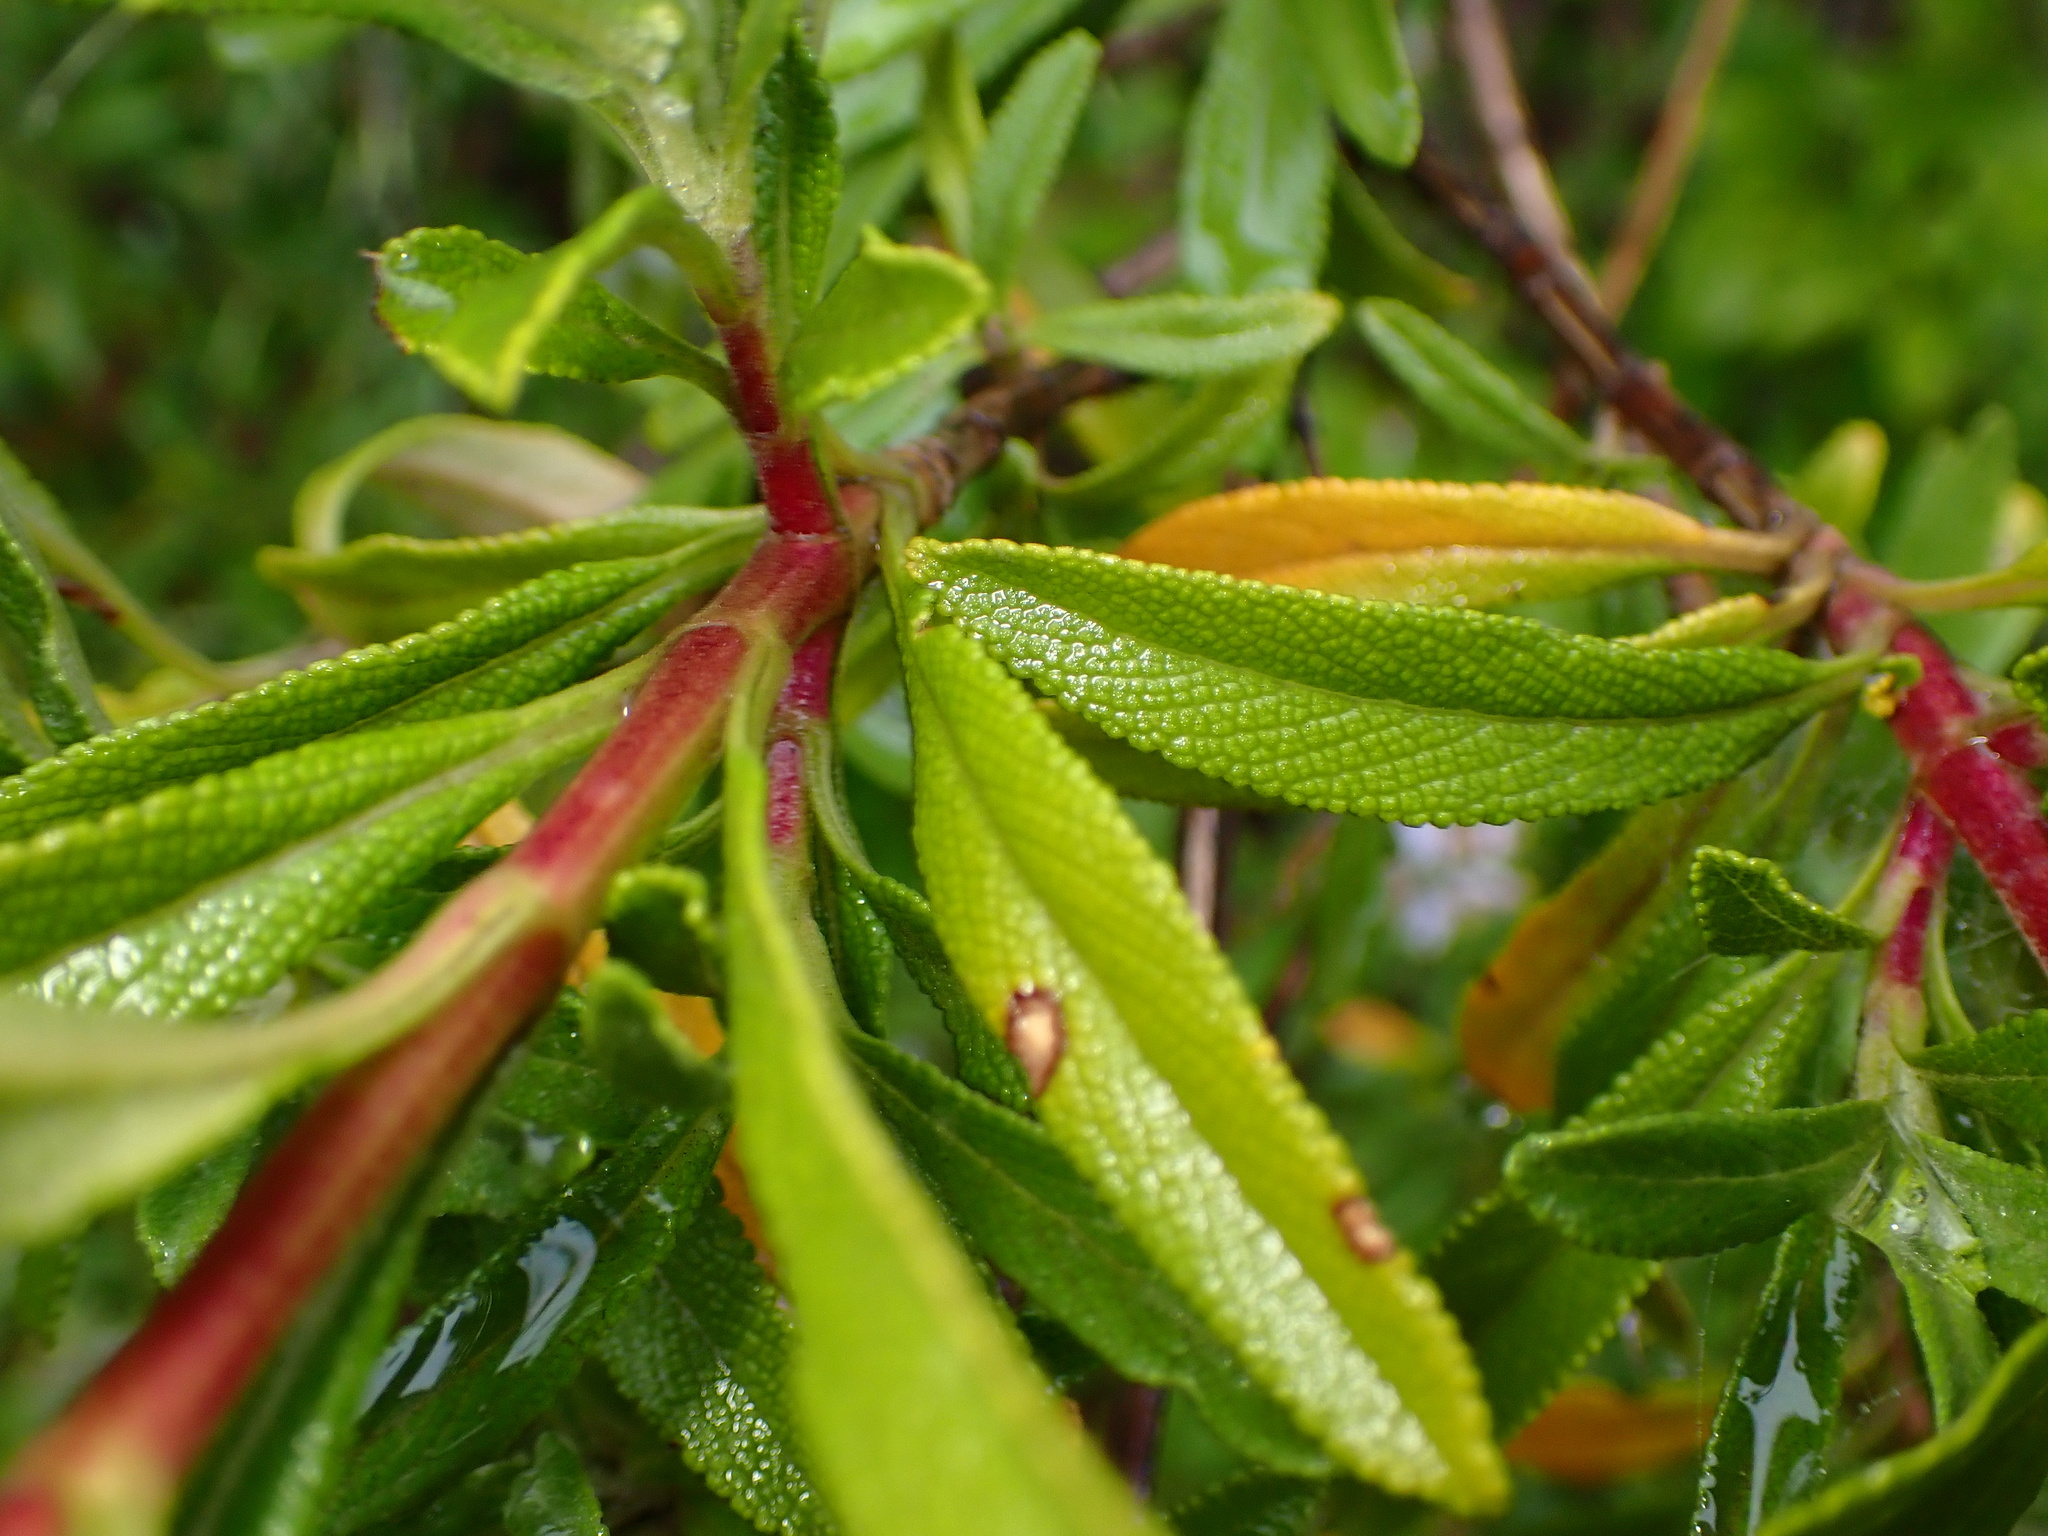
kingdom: Plantae
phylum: Tracheophyta
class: Magnoliopsida
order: Lamiales
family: Lamiaceae
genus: Salvia
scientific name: Salvia mellifera
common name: Black sage
